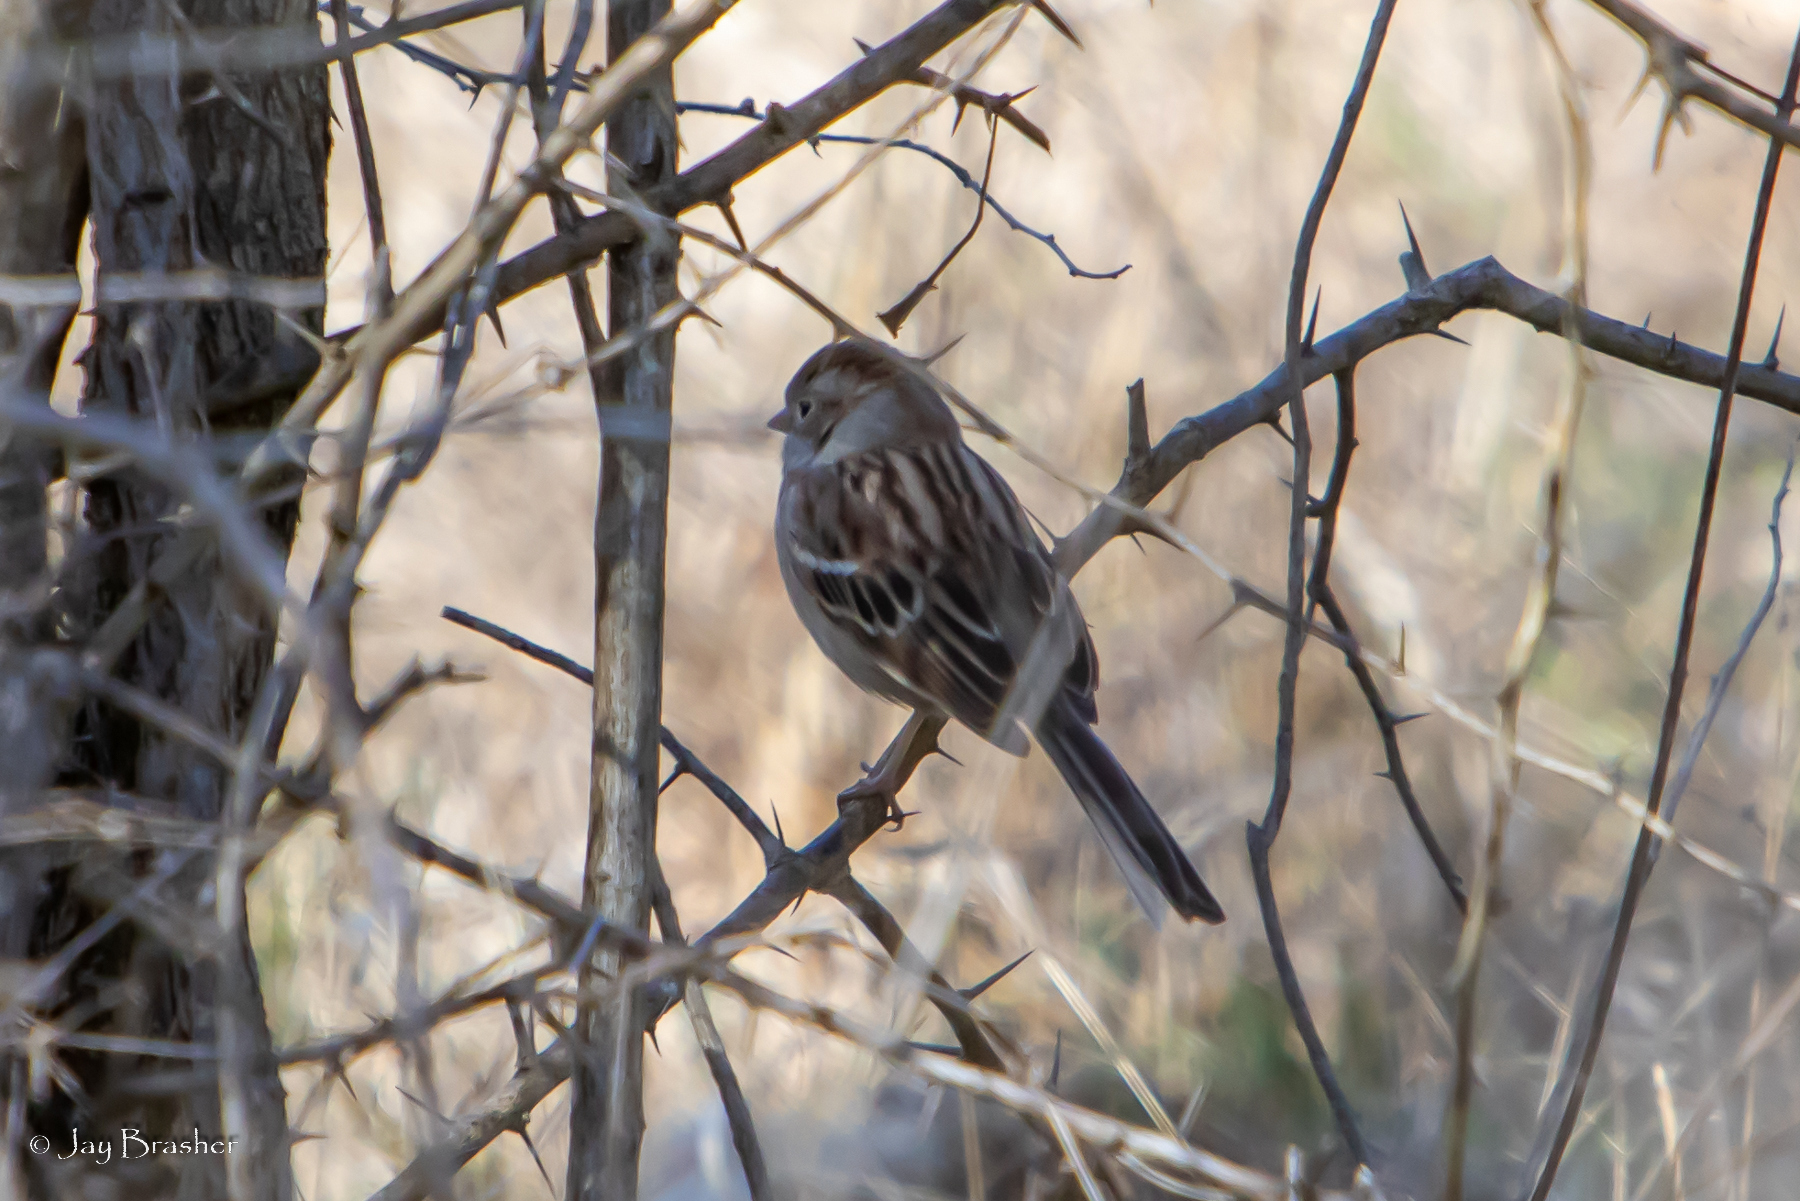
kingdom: Animalia
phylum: Chordata
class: Aves
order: Passeriformes
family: Passerellidae
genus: Spizella
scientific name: Spizella pusilla
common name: Field sparrow
